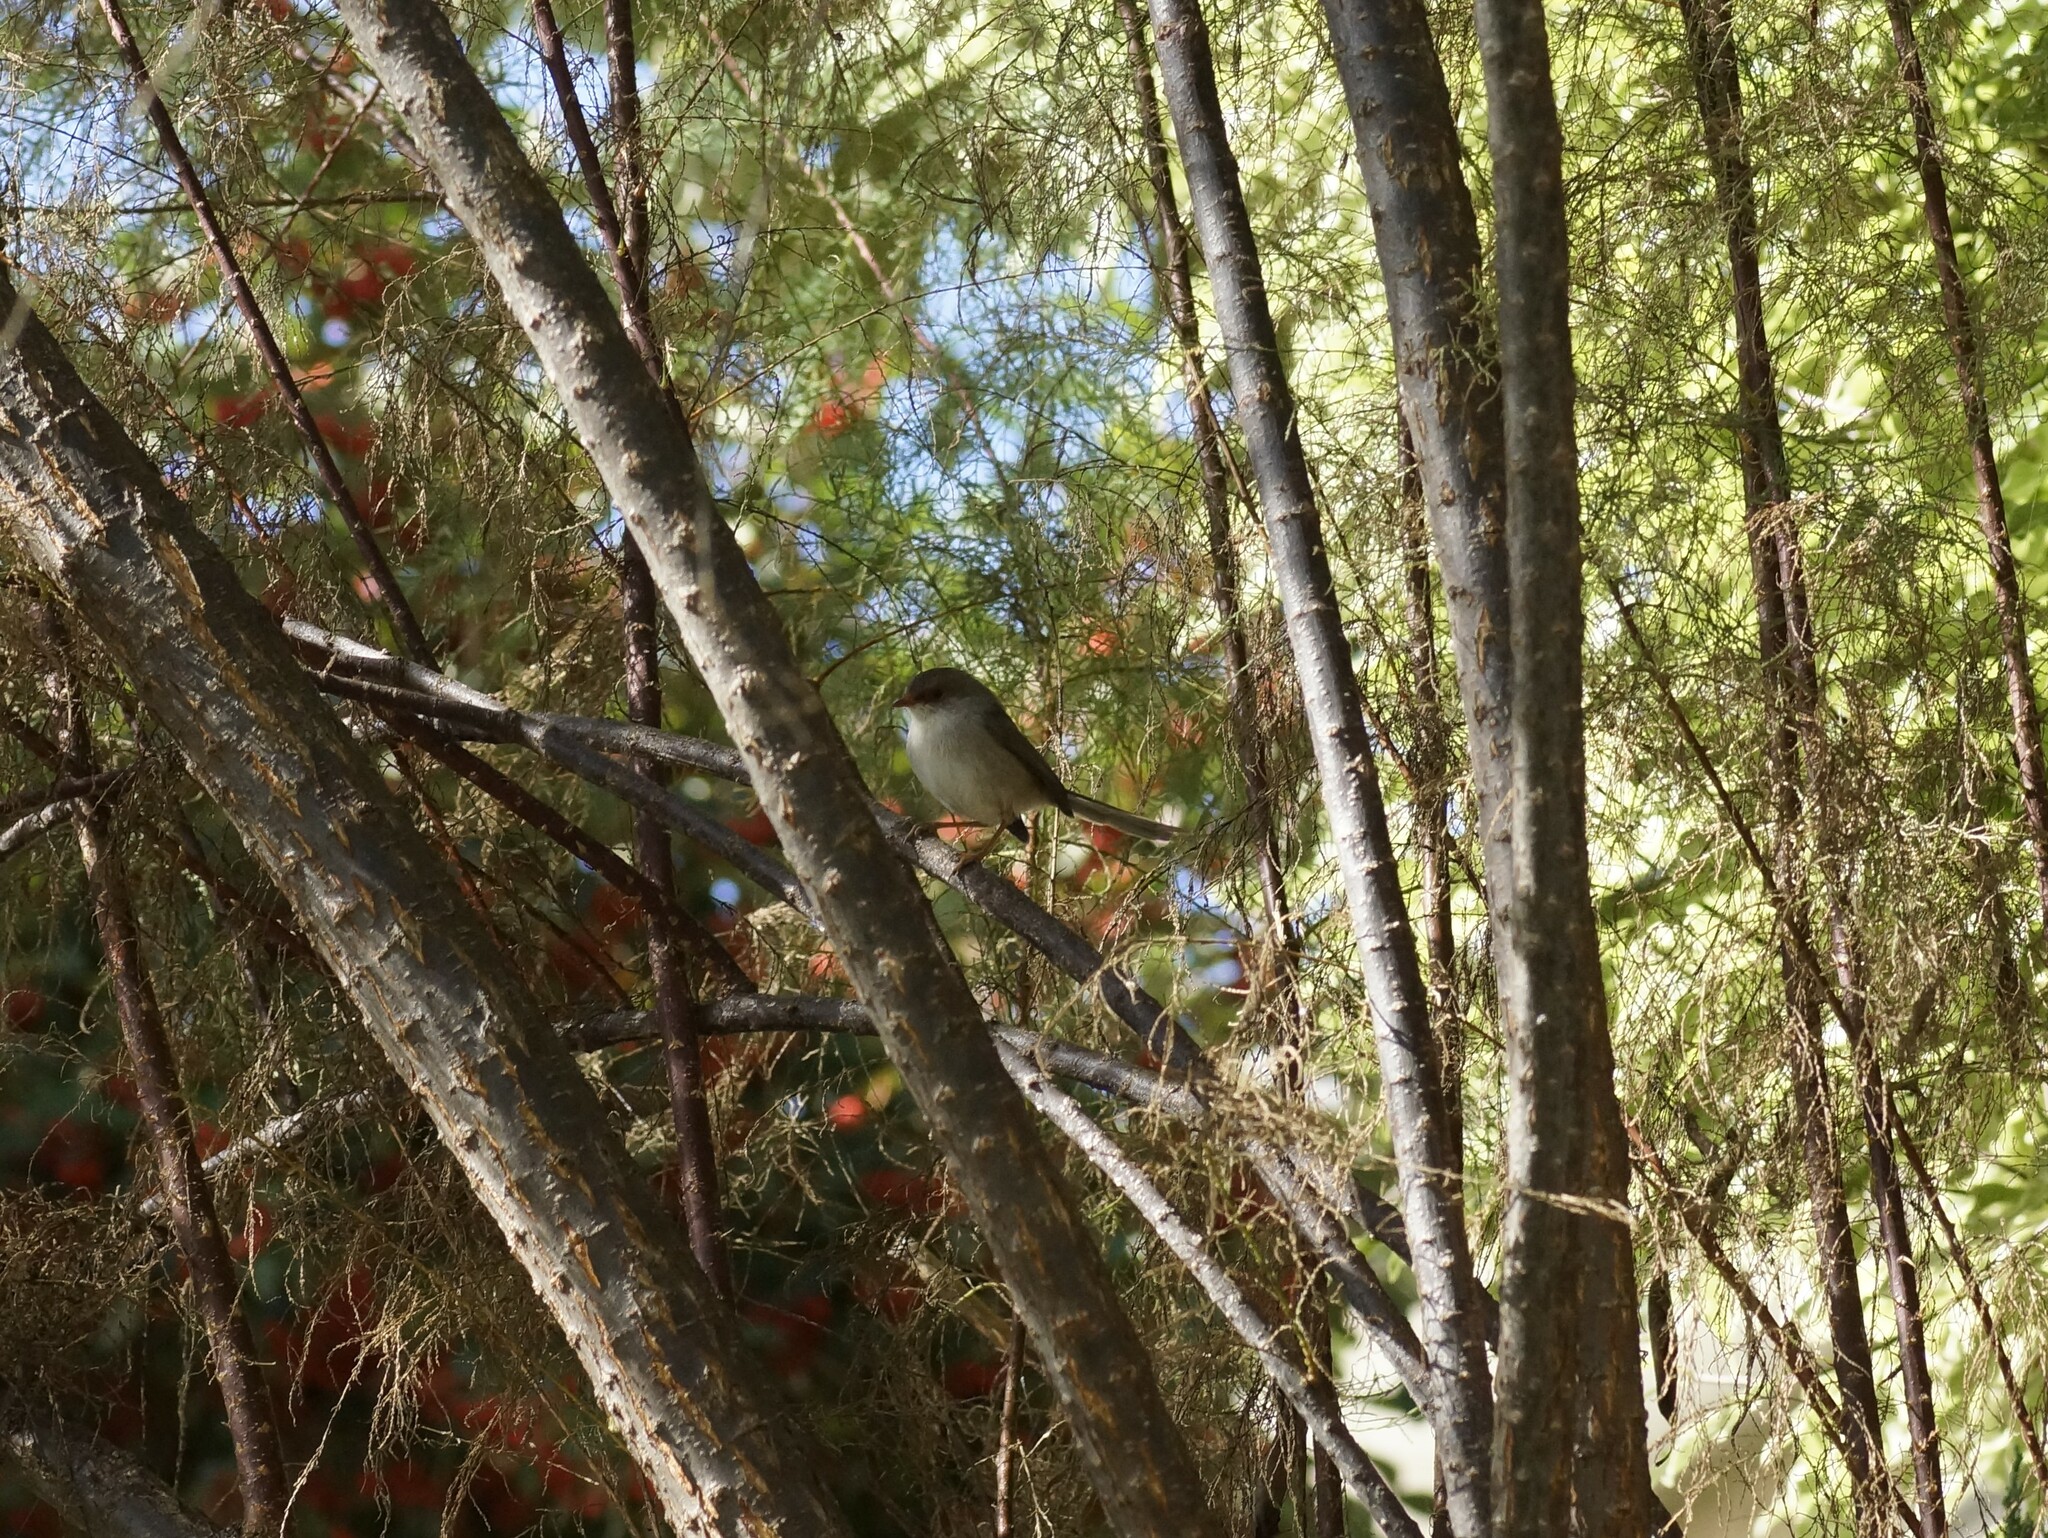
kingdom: Animalia
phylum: Chordata
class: Aves
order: Passeriformes
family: Maluridae
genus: Malurus
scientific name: Malurus cyaneus
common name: Superb fairywren
